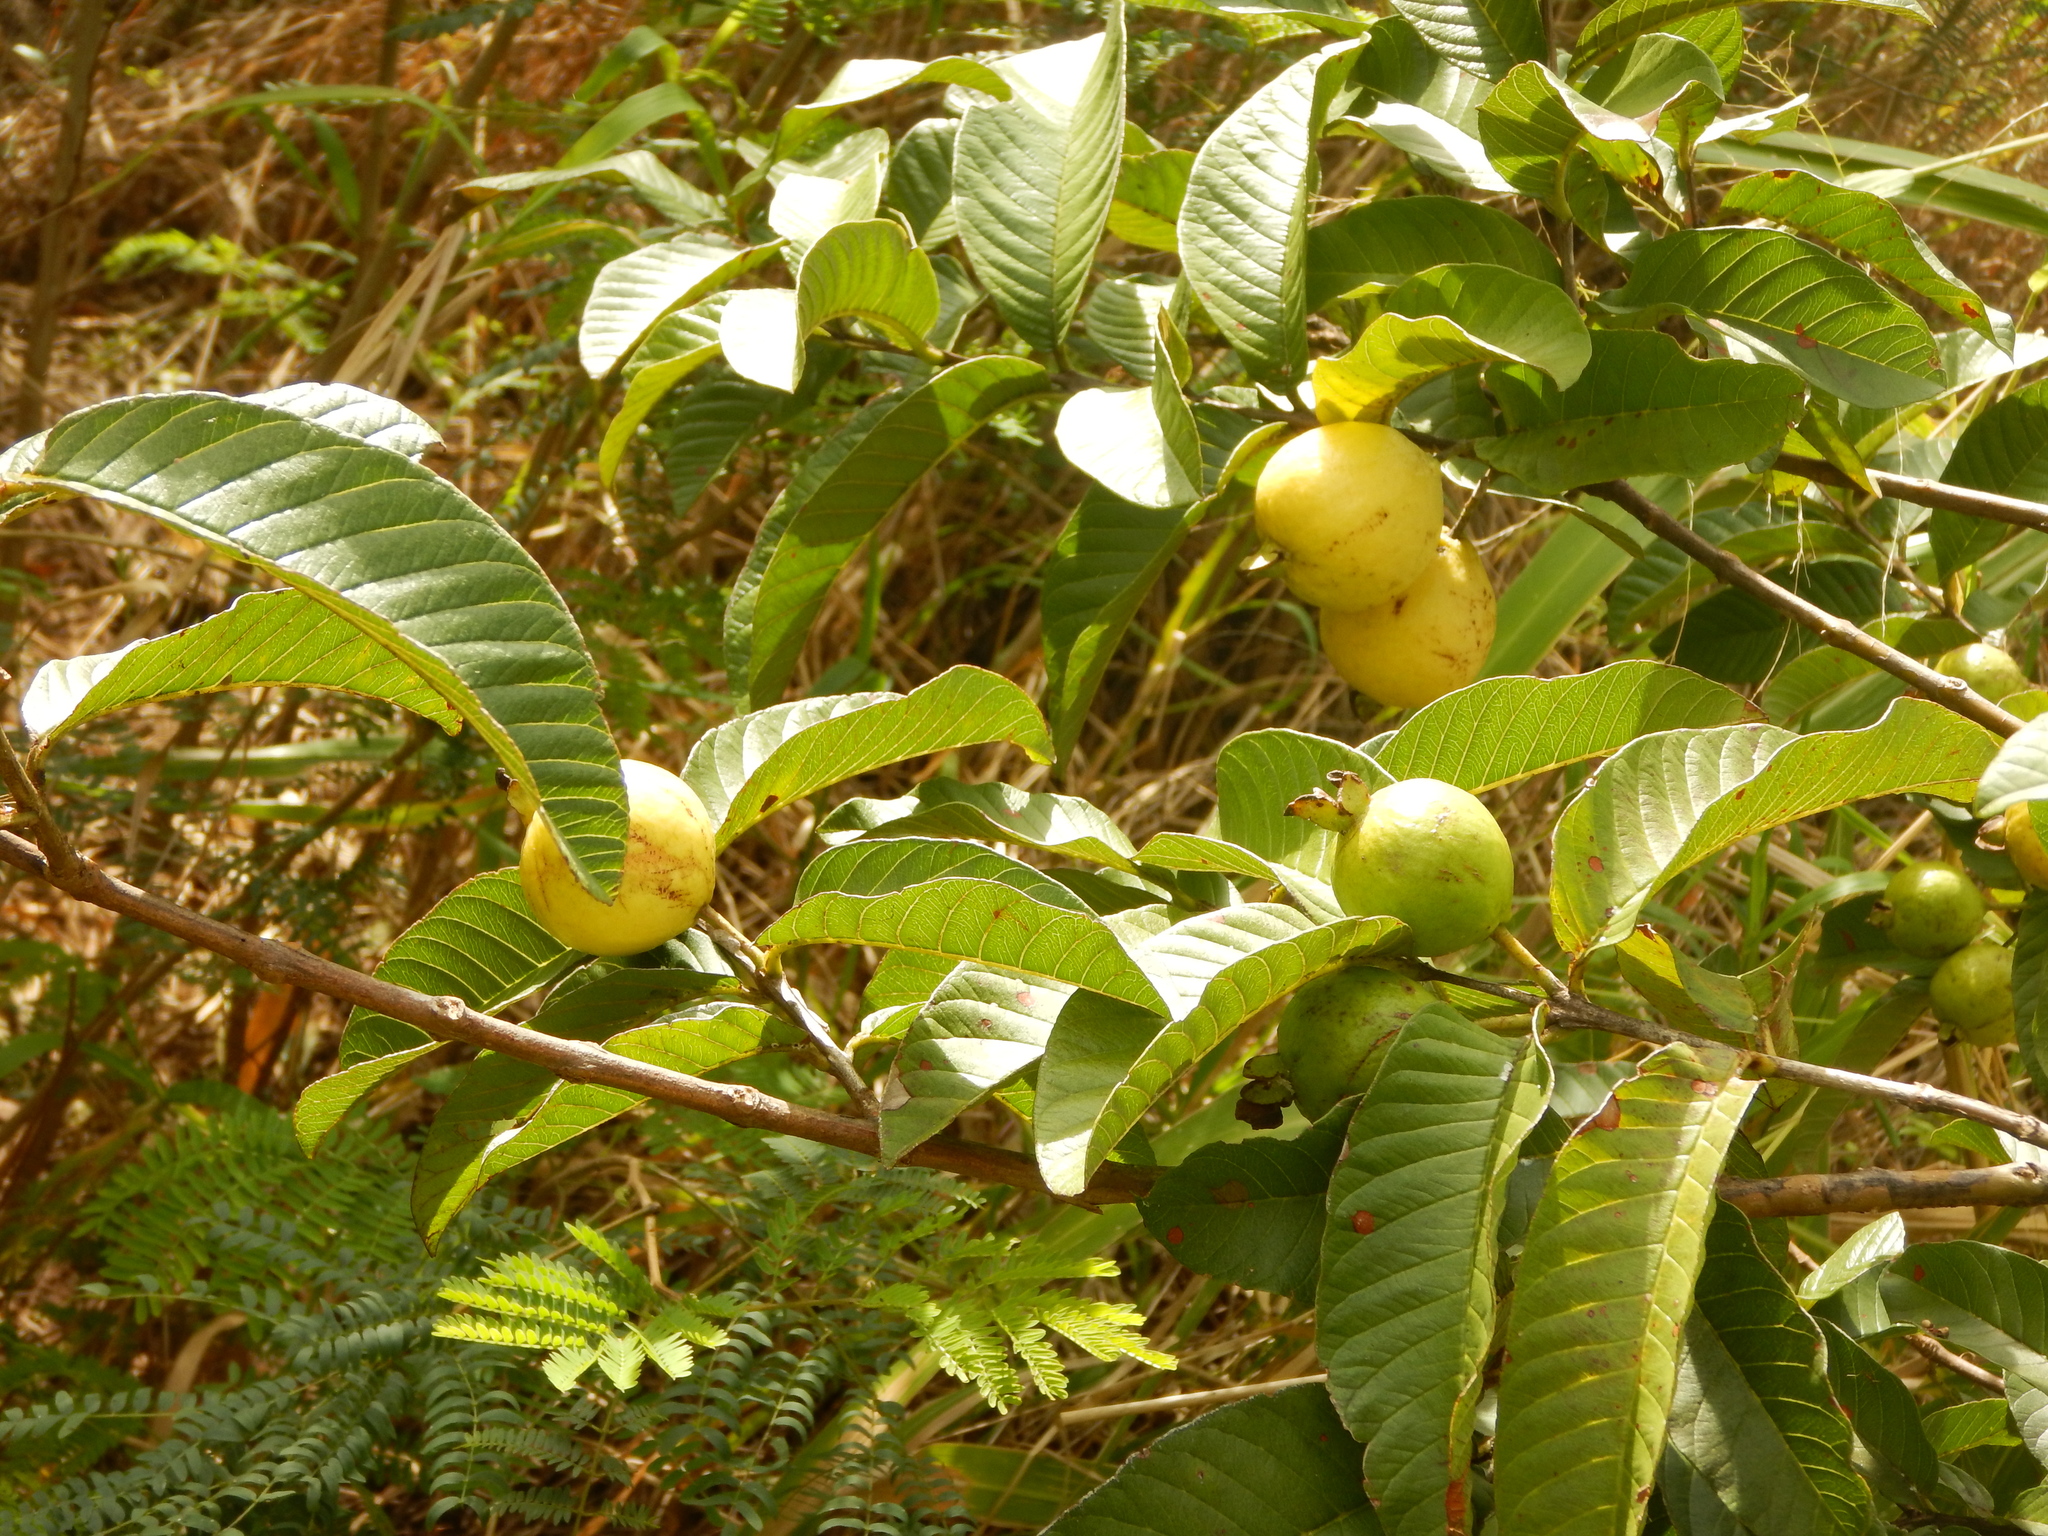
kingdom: Plantae
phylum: Tracheophyta
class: Magnoliopsida
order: Myrtales
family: Myrtaceae
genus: Psidium
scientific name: Psidium guajava
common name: Guava
